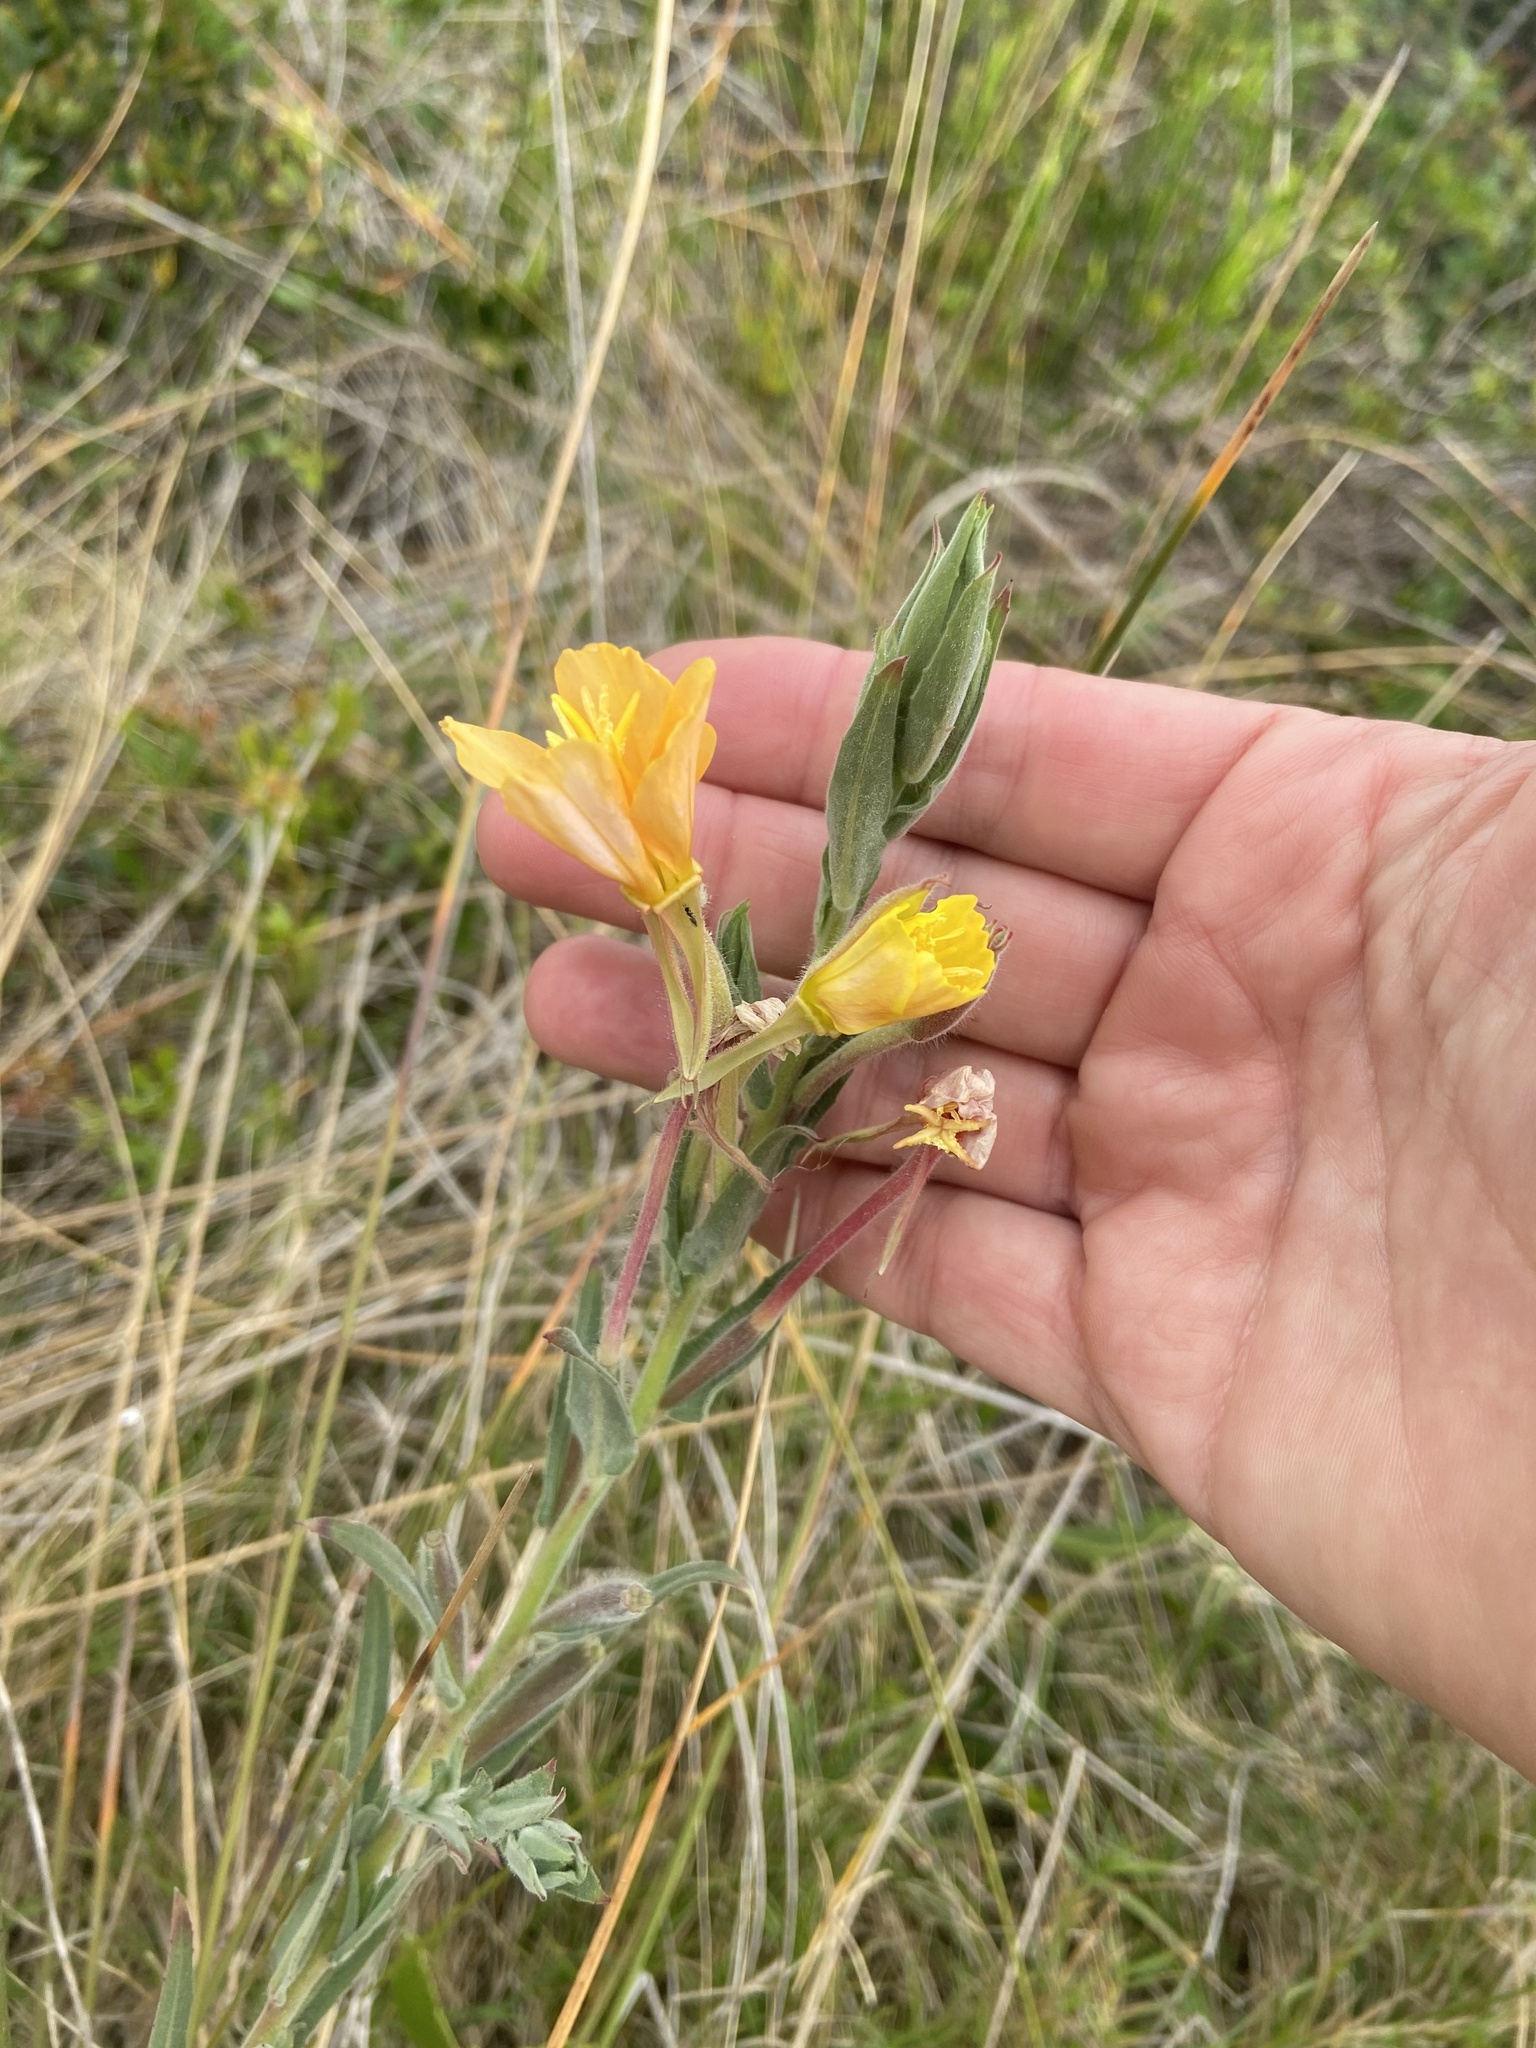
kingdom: Plantae
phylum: Tracheophyta
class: Magnoliopsida
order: Myrtales
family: Onagraceae
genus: Oenothera
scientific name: Oenothera mollissima
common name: Argentine evening primrose
